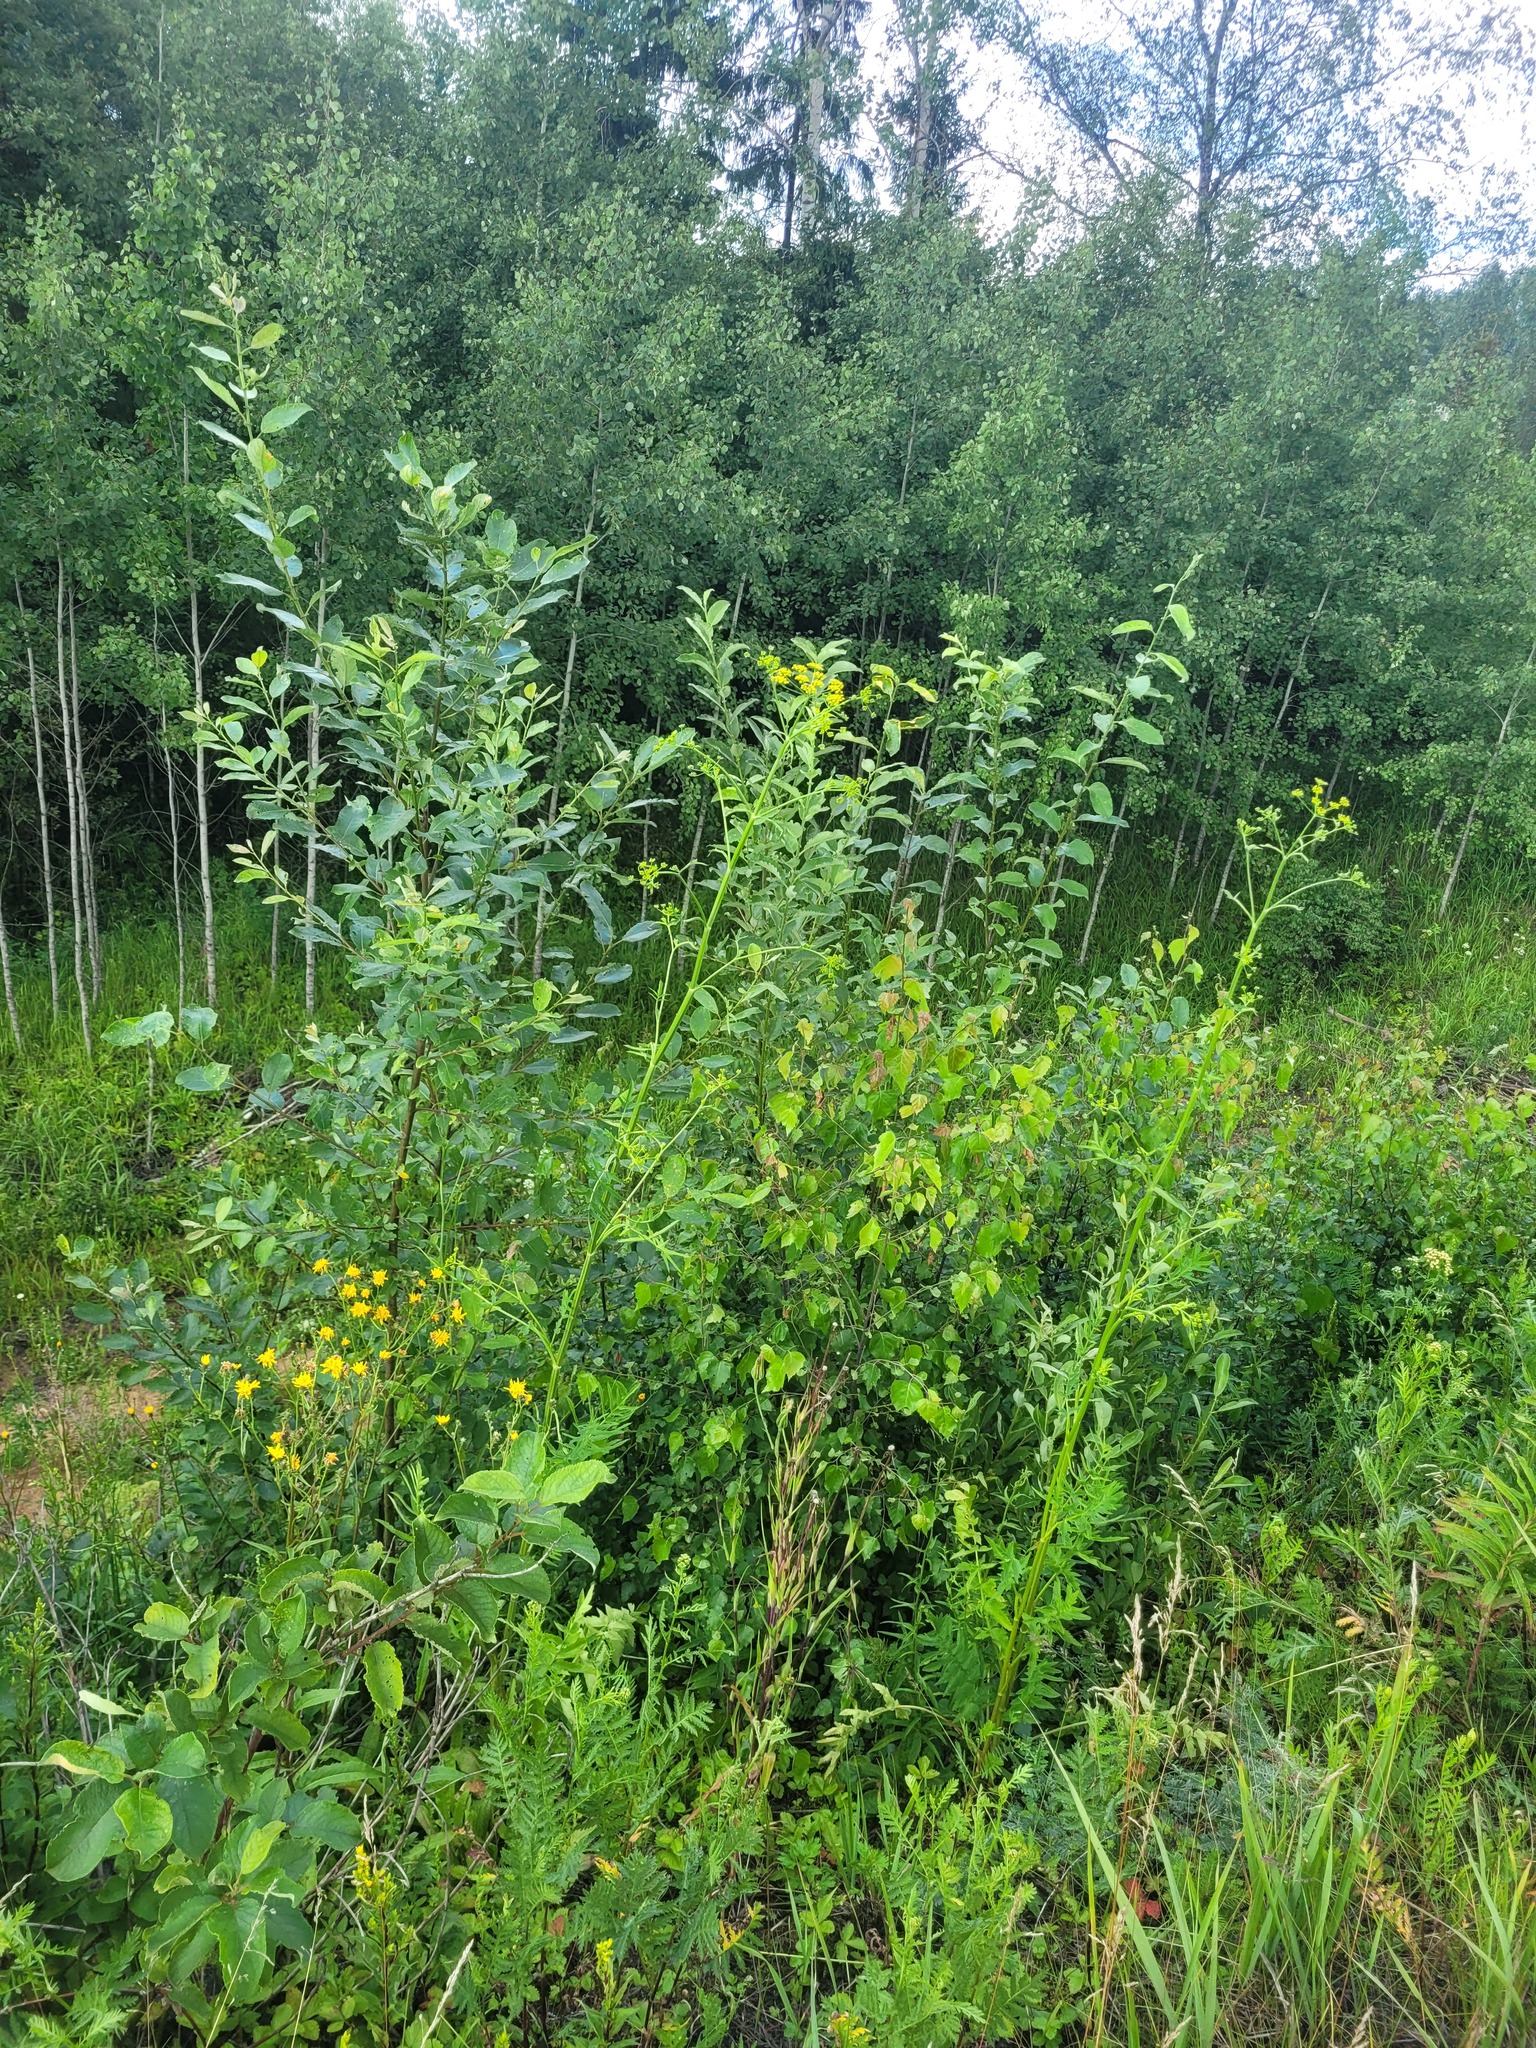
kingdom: Plantae
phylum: Tracheophyta
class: Magnoliopsida
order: Apiales
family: Apiaceae
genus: Pastinaca
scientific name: Pastinaca sativa
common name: Wild parsnip
